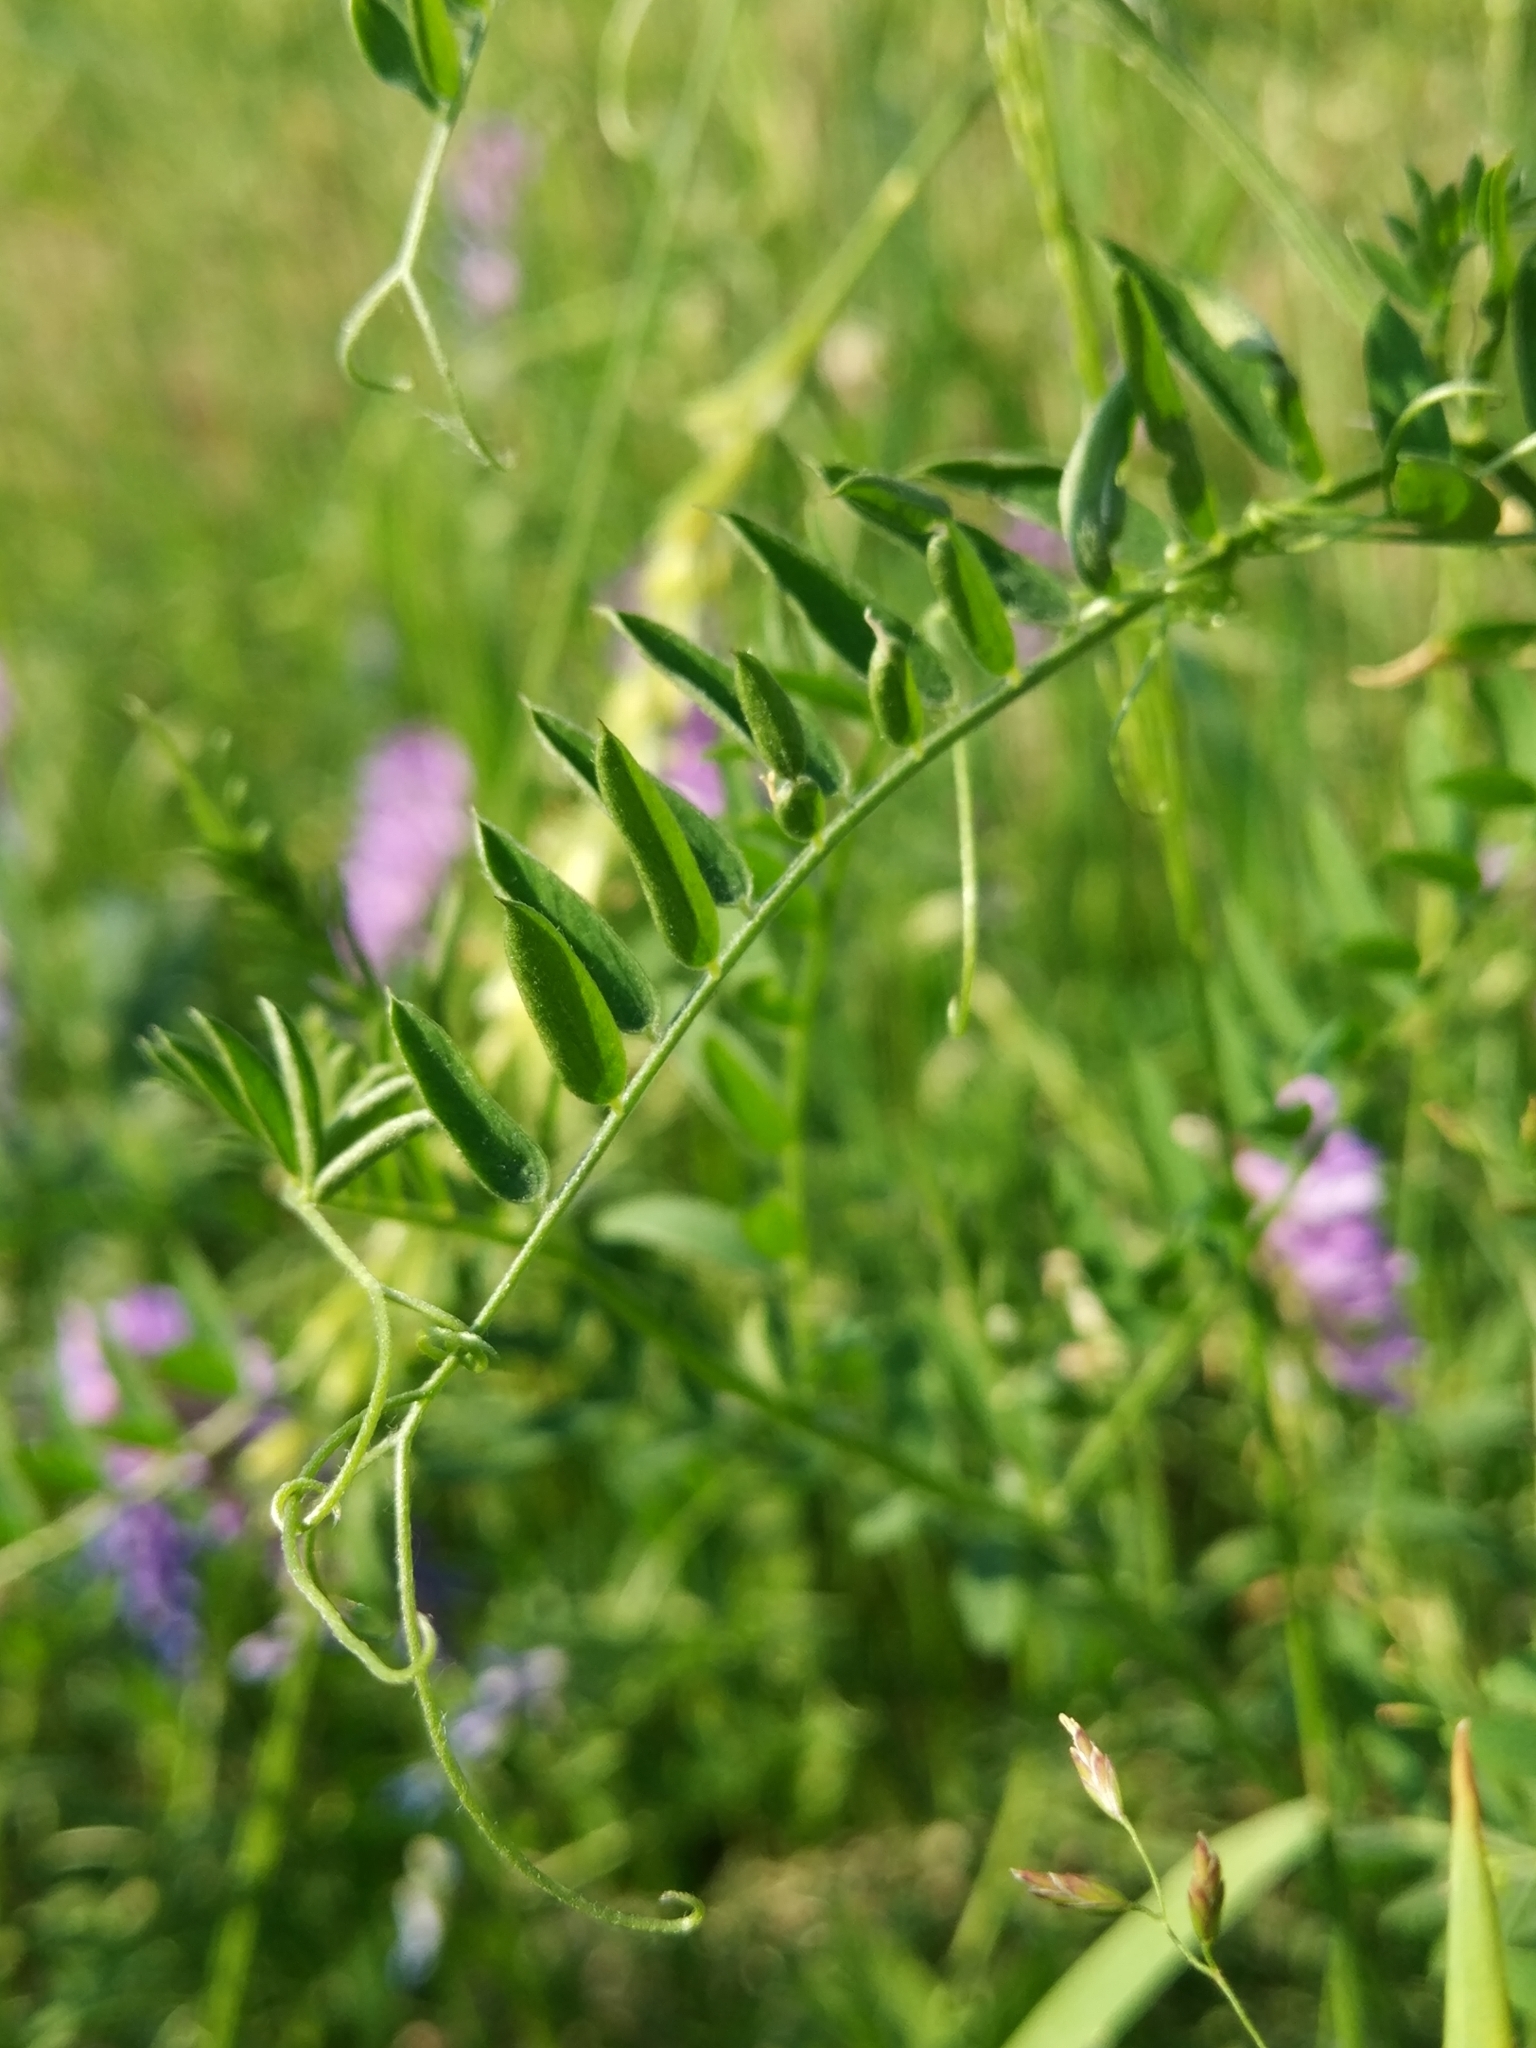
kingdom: Plantae
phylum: Tracheophyta
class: Magnoliopsida
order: Fabales
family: Fabaceae
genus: Vicia
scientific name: Vicia cracca
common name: Bird vetch
